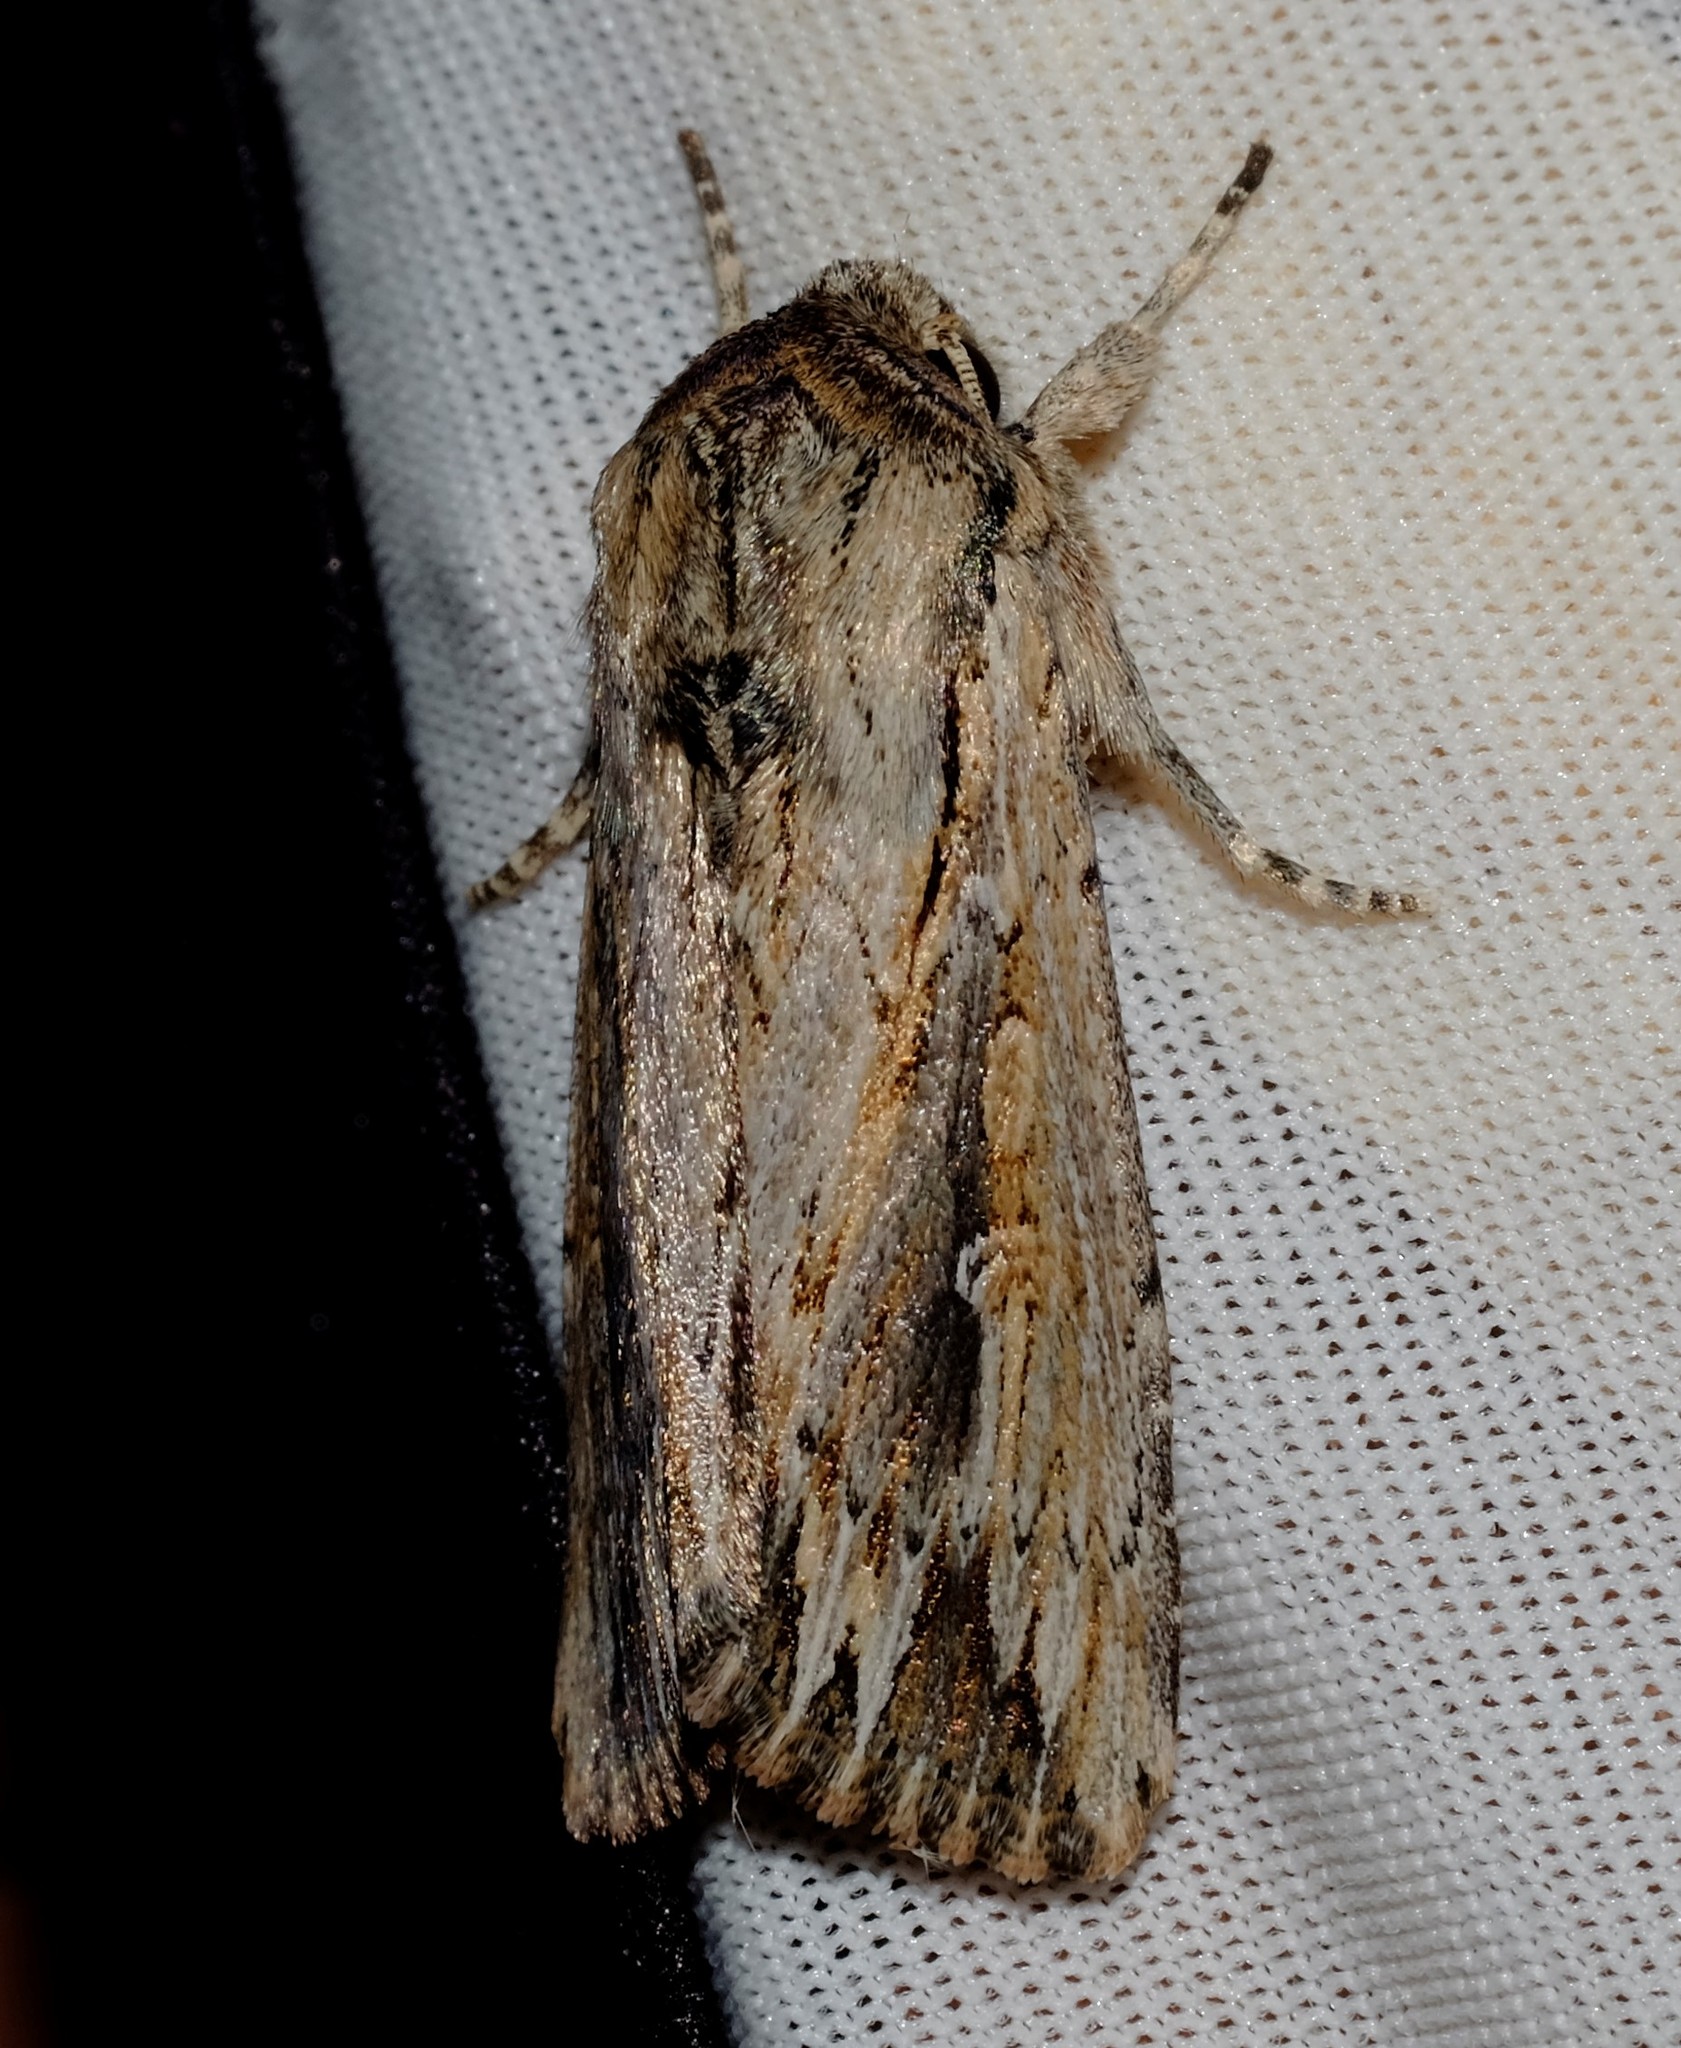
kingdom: Animalia
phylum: Arthropoda
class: Insecta
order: Lepidoptera
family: Noctuidae
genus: Persectania
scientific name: Persectania dyscrita
